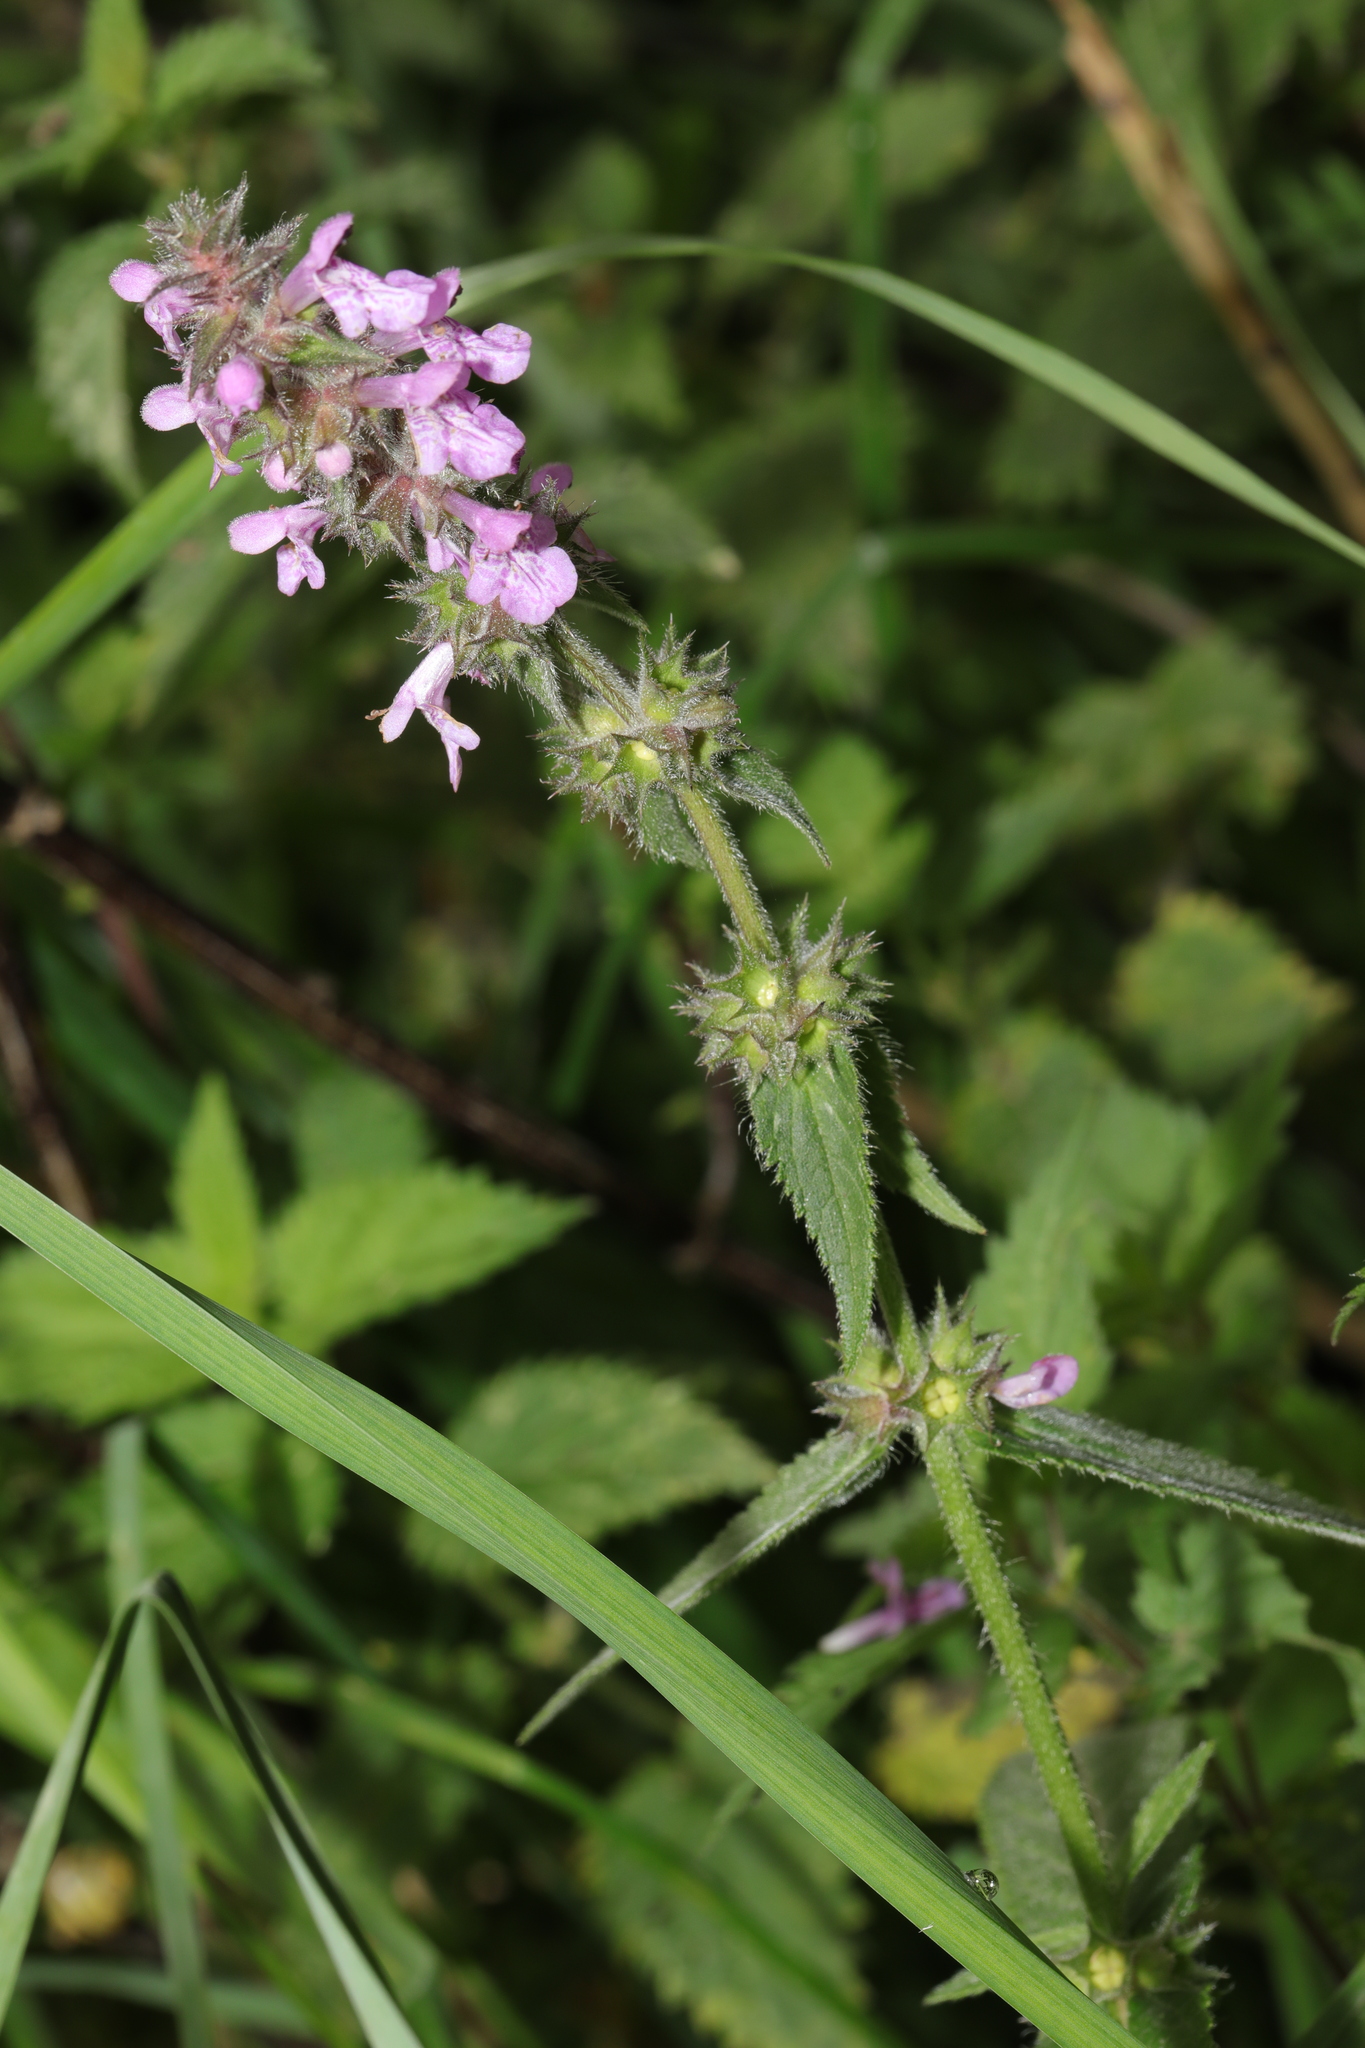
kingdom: Plantae
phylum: Tracheophyta
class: Magnoliopsida
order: Lamiales
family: Lamiaceae
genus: Stachys
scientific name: Stachys palustris
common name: Marsh woundwort
